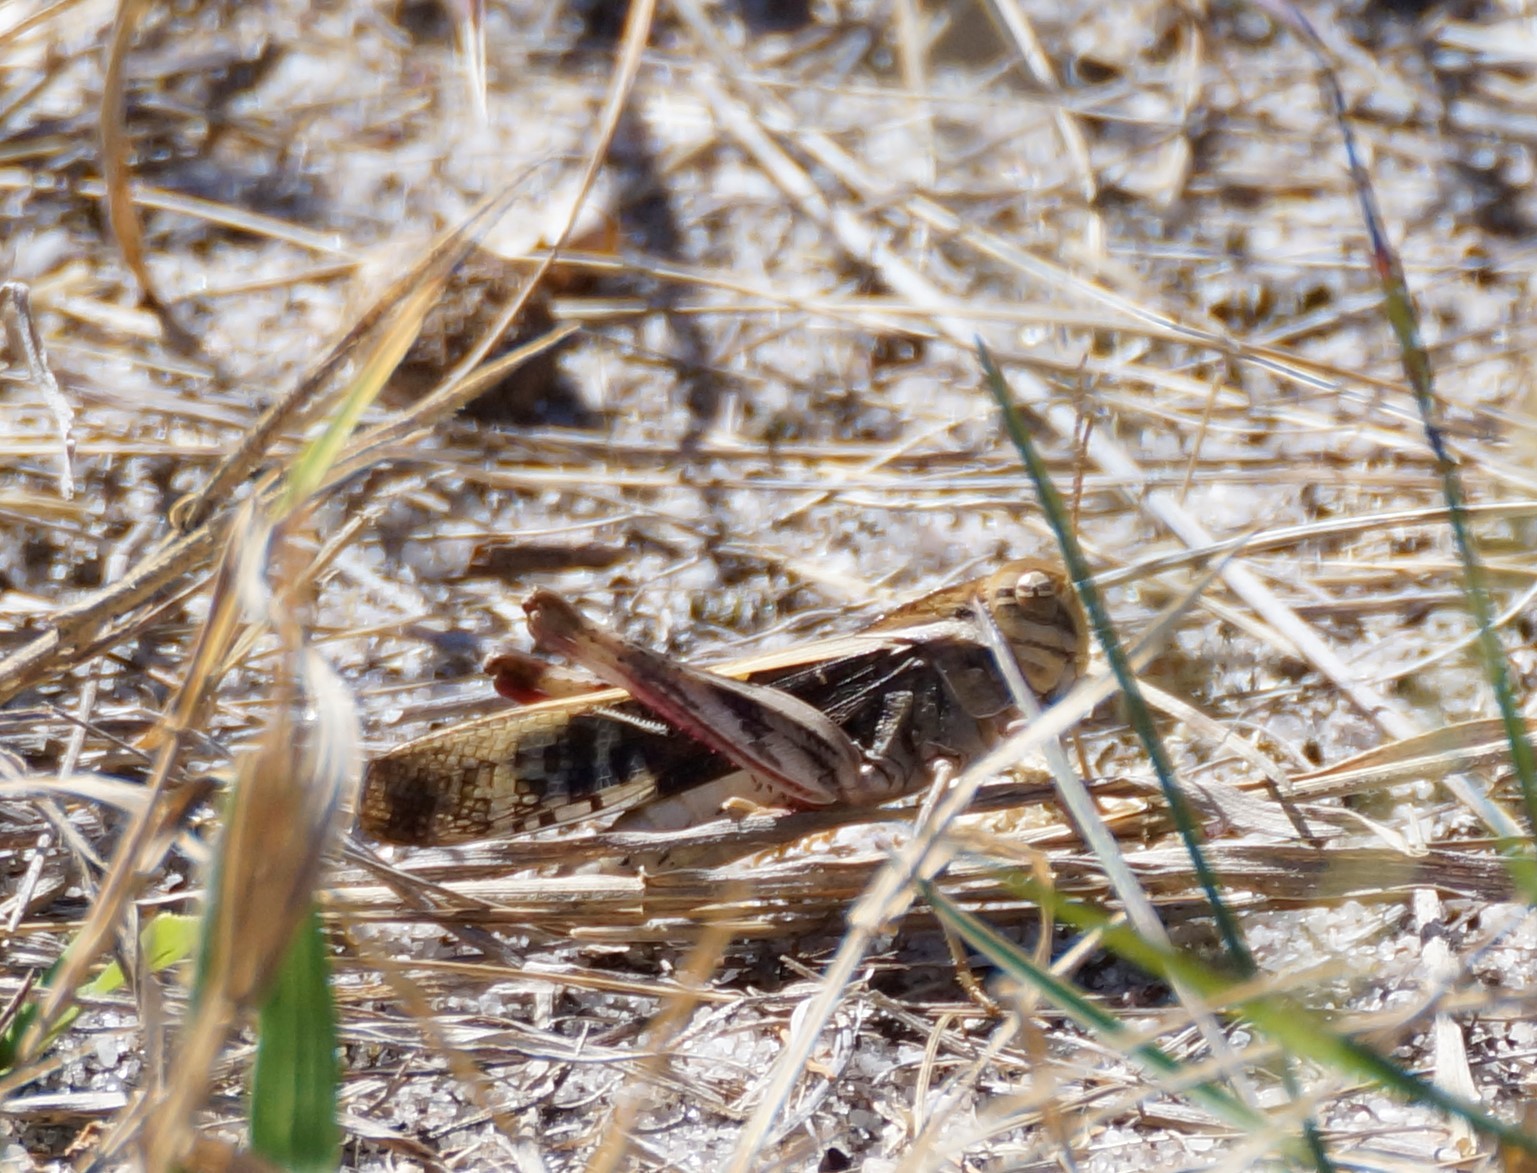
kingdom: Animalia
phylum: Arthropoda
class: Insecta
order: Orthoptera
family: Acrididae
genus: Gastrimargus
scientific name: Gastrimargus musicus
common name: Yellow-winged locust
